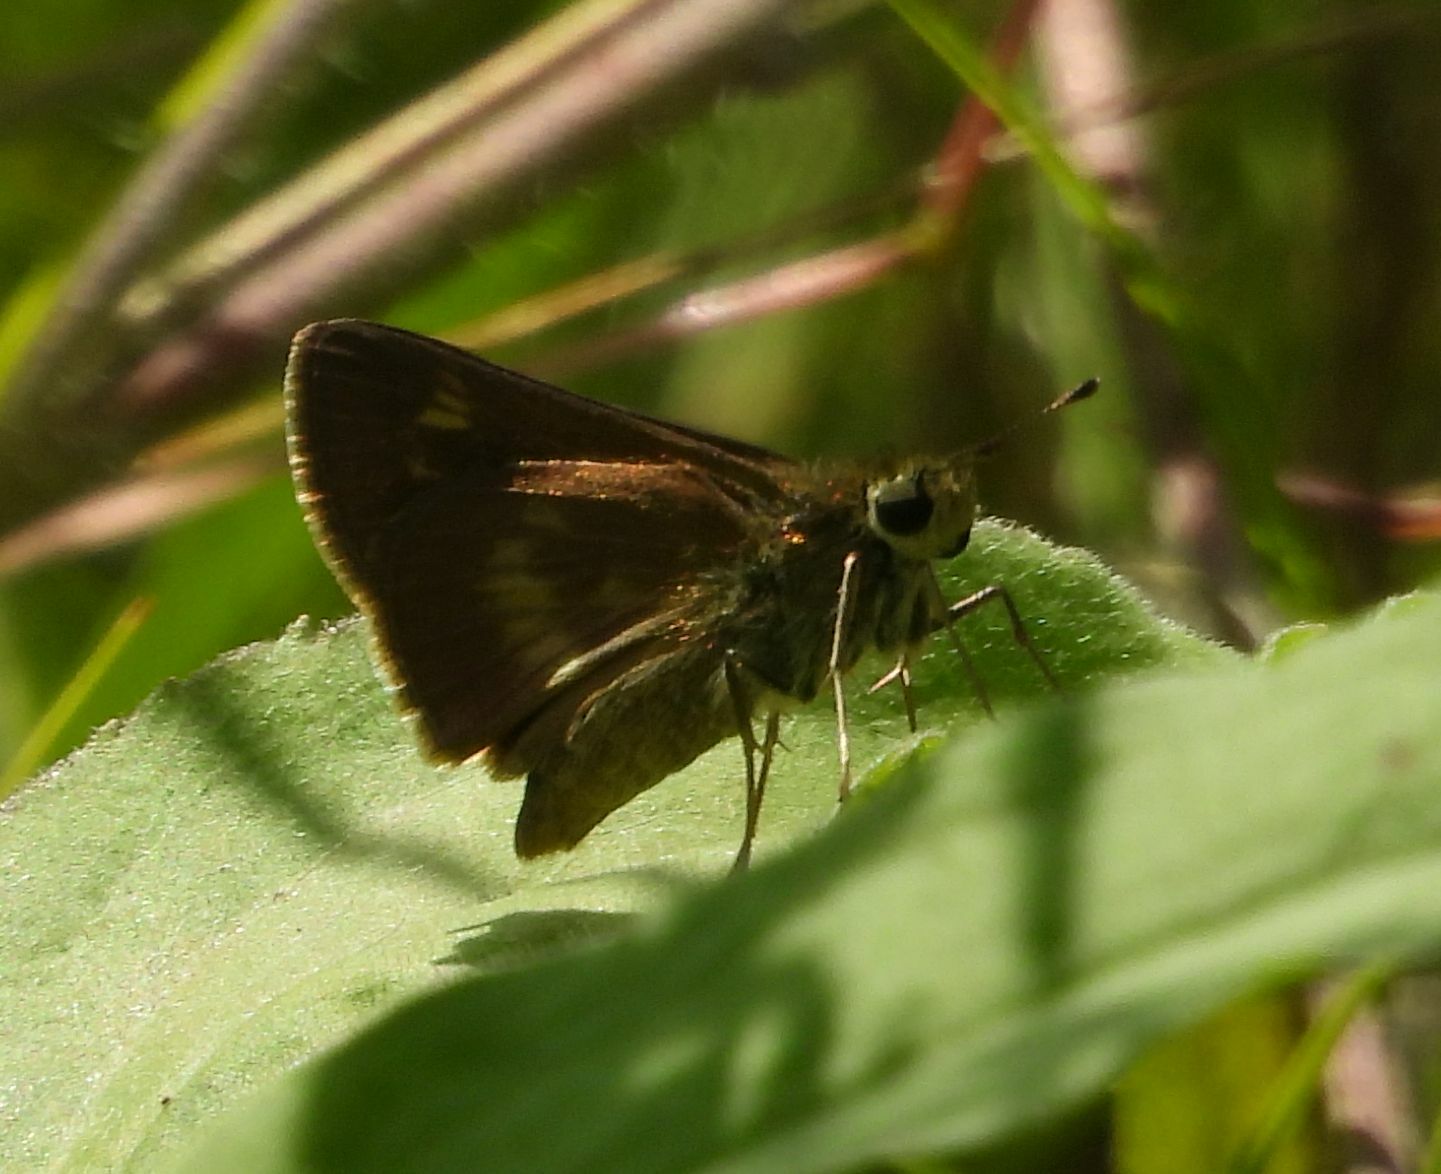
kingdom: Animalia
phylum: Arthropoda
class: Insecta
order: Lepidoptera
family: Hesperiidae
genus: Polites
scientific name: Polites egeremet
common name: Northern broken-dash
